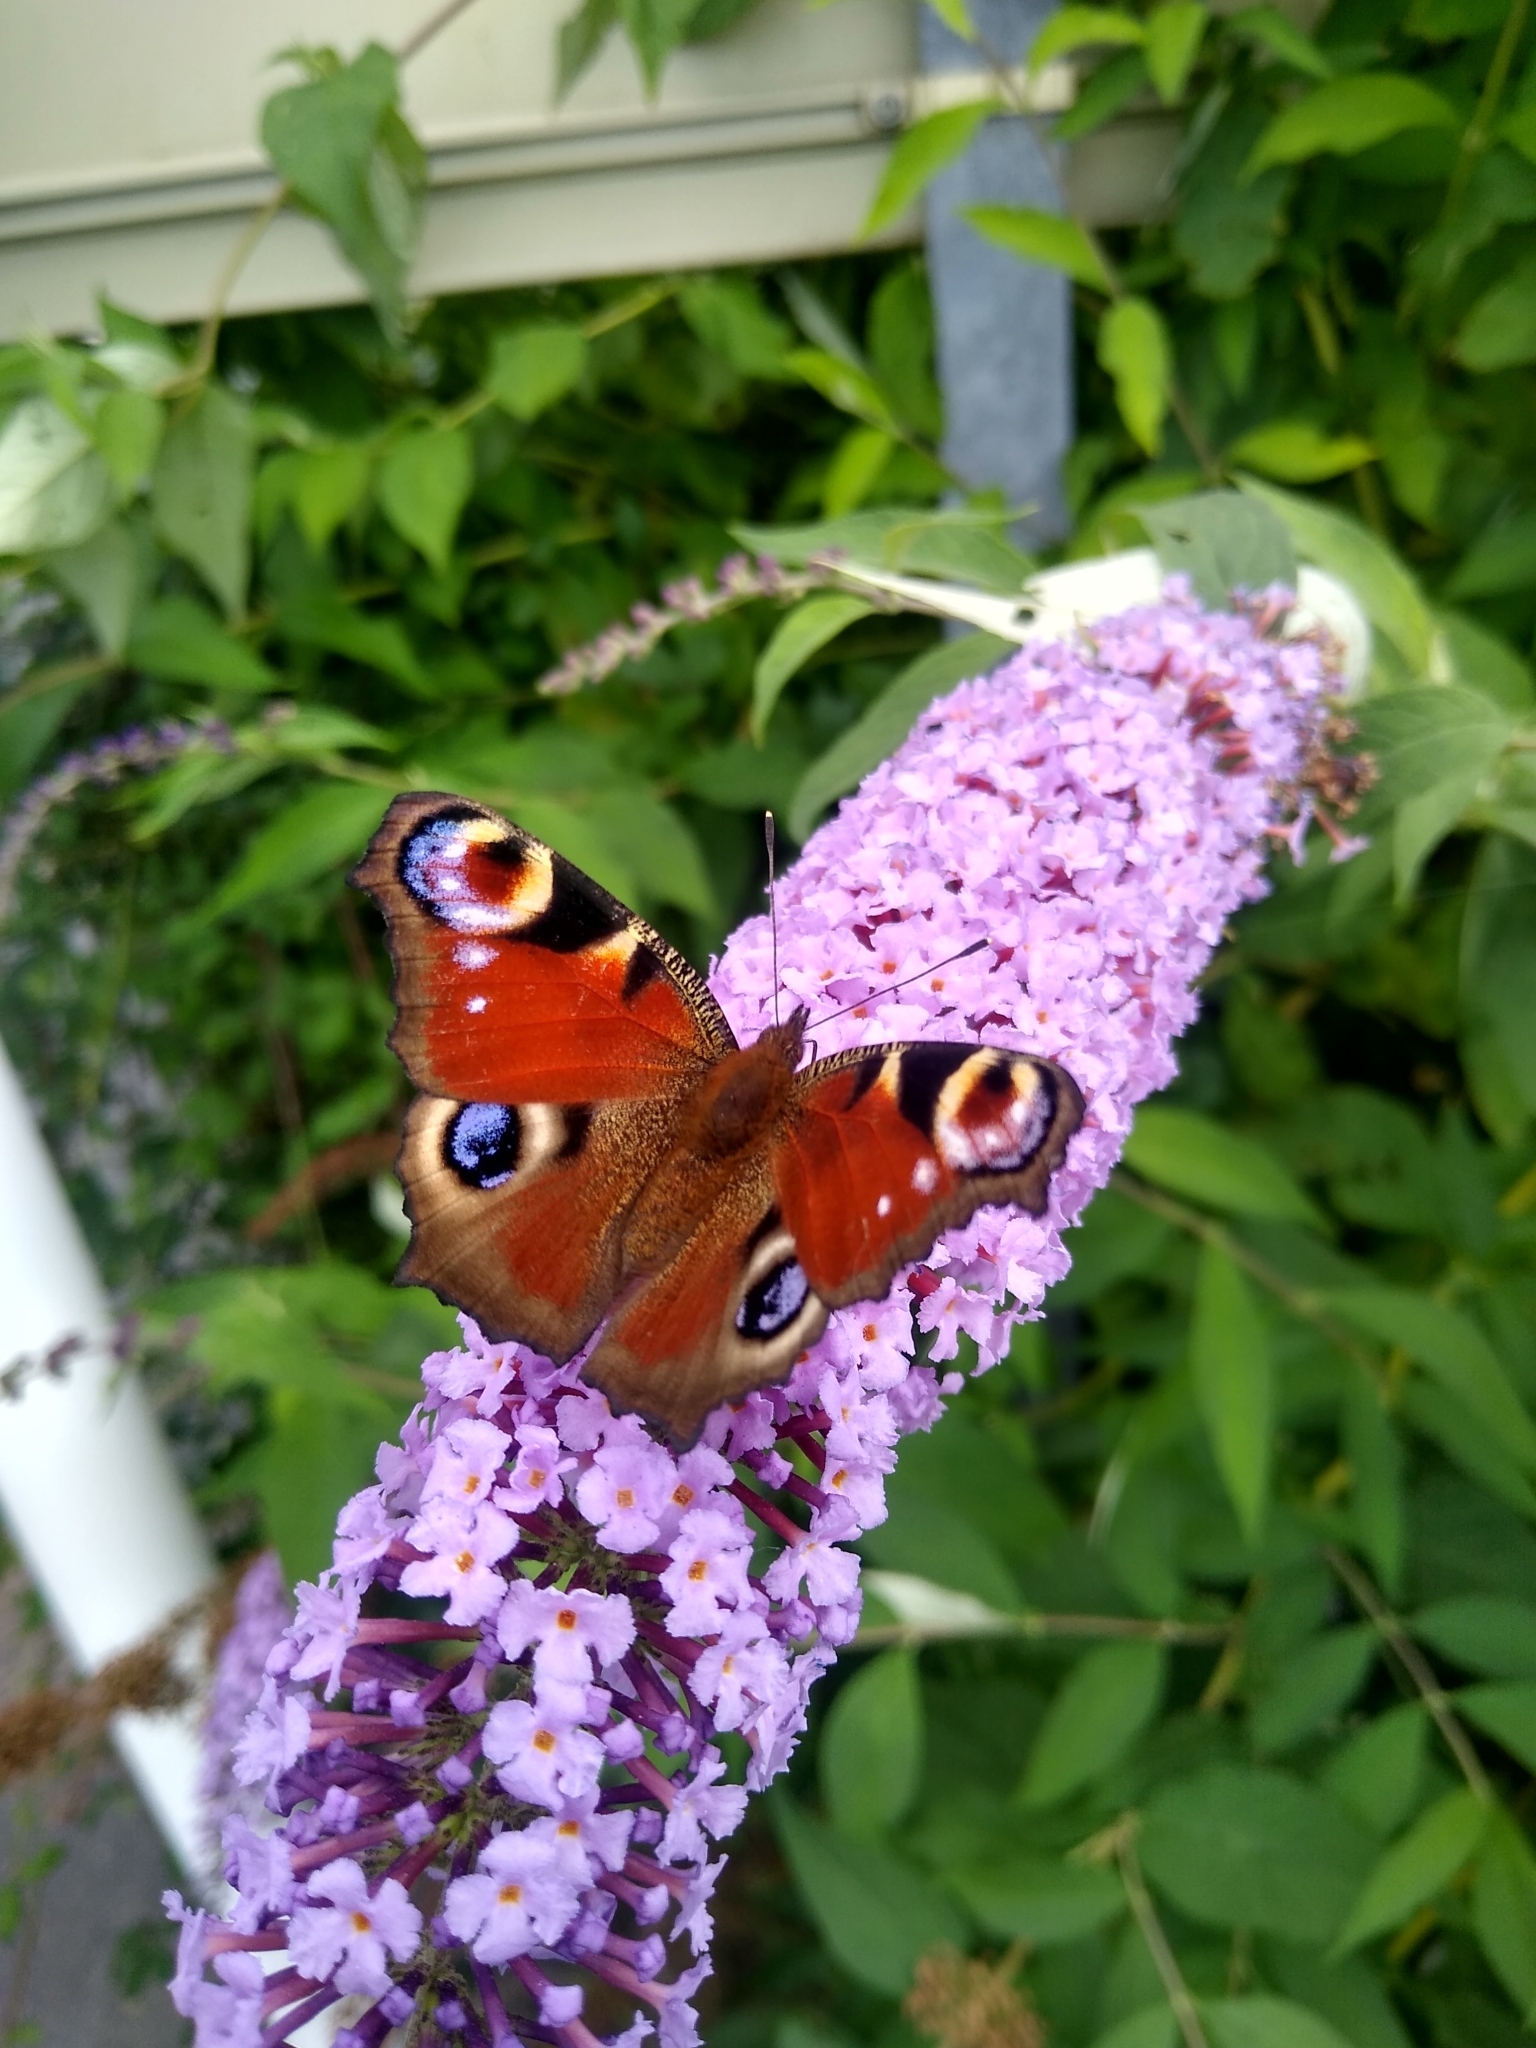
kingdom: Animalia
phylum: Arthropoda
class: Insecta
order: Lepidoptera
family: Nymphalidae
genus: Aglais
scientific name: Aglais io
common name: Peacock
